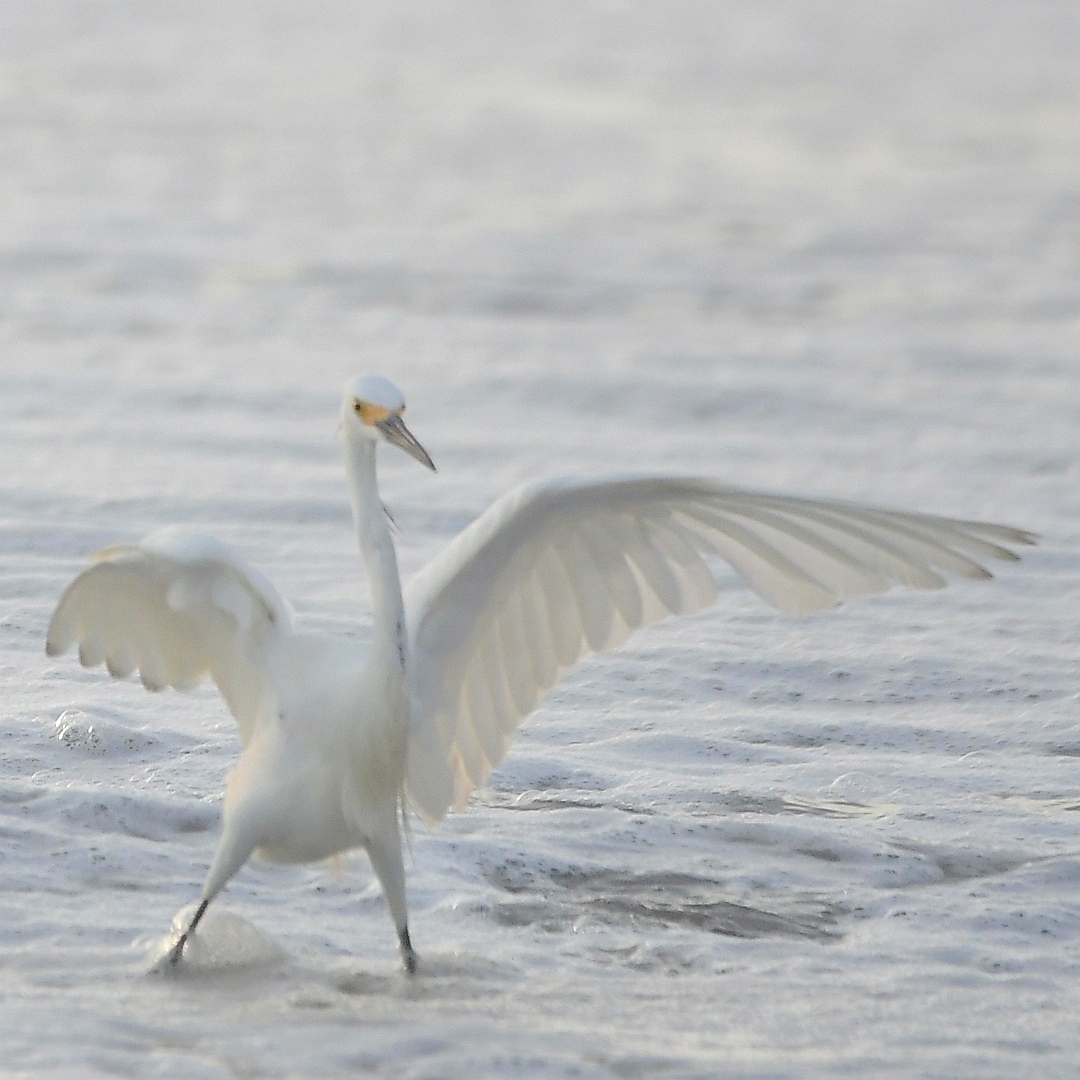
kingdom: Animalia
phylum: Chordata
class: Aves
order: Pelecaniformes
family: Ardeidae
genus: Egretta
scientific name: Egretta thula
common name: Snowy egret
